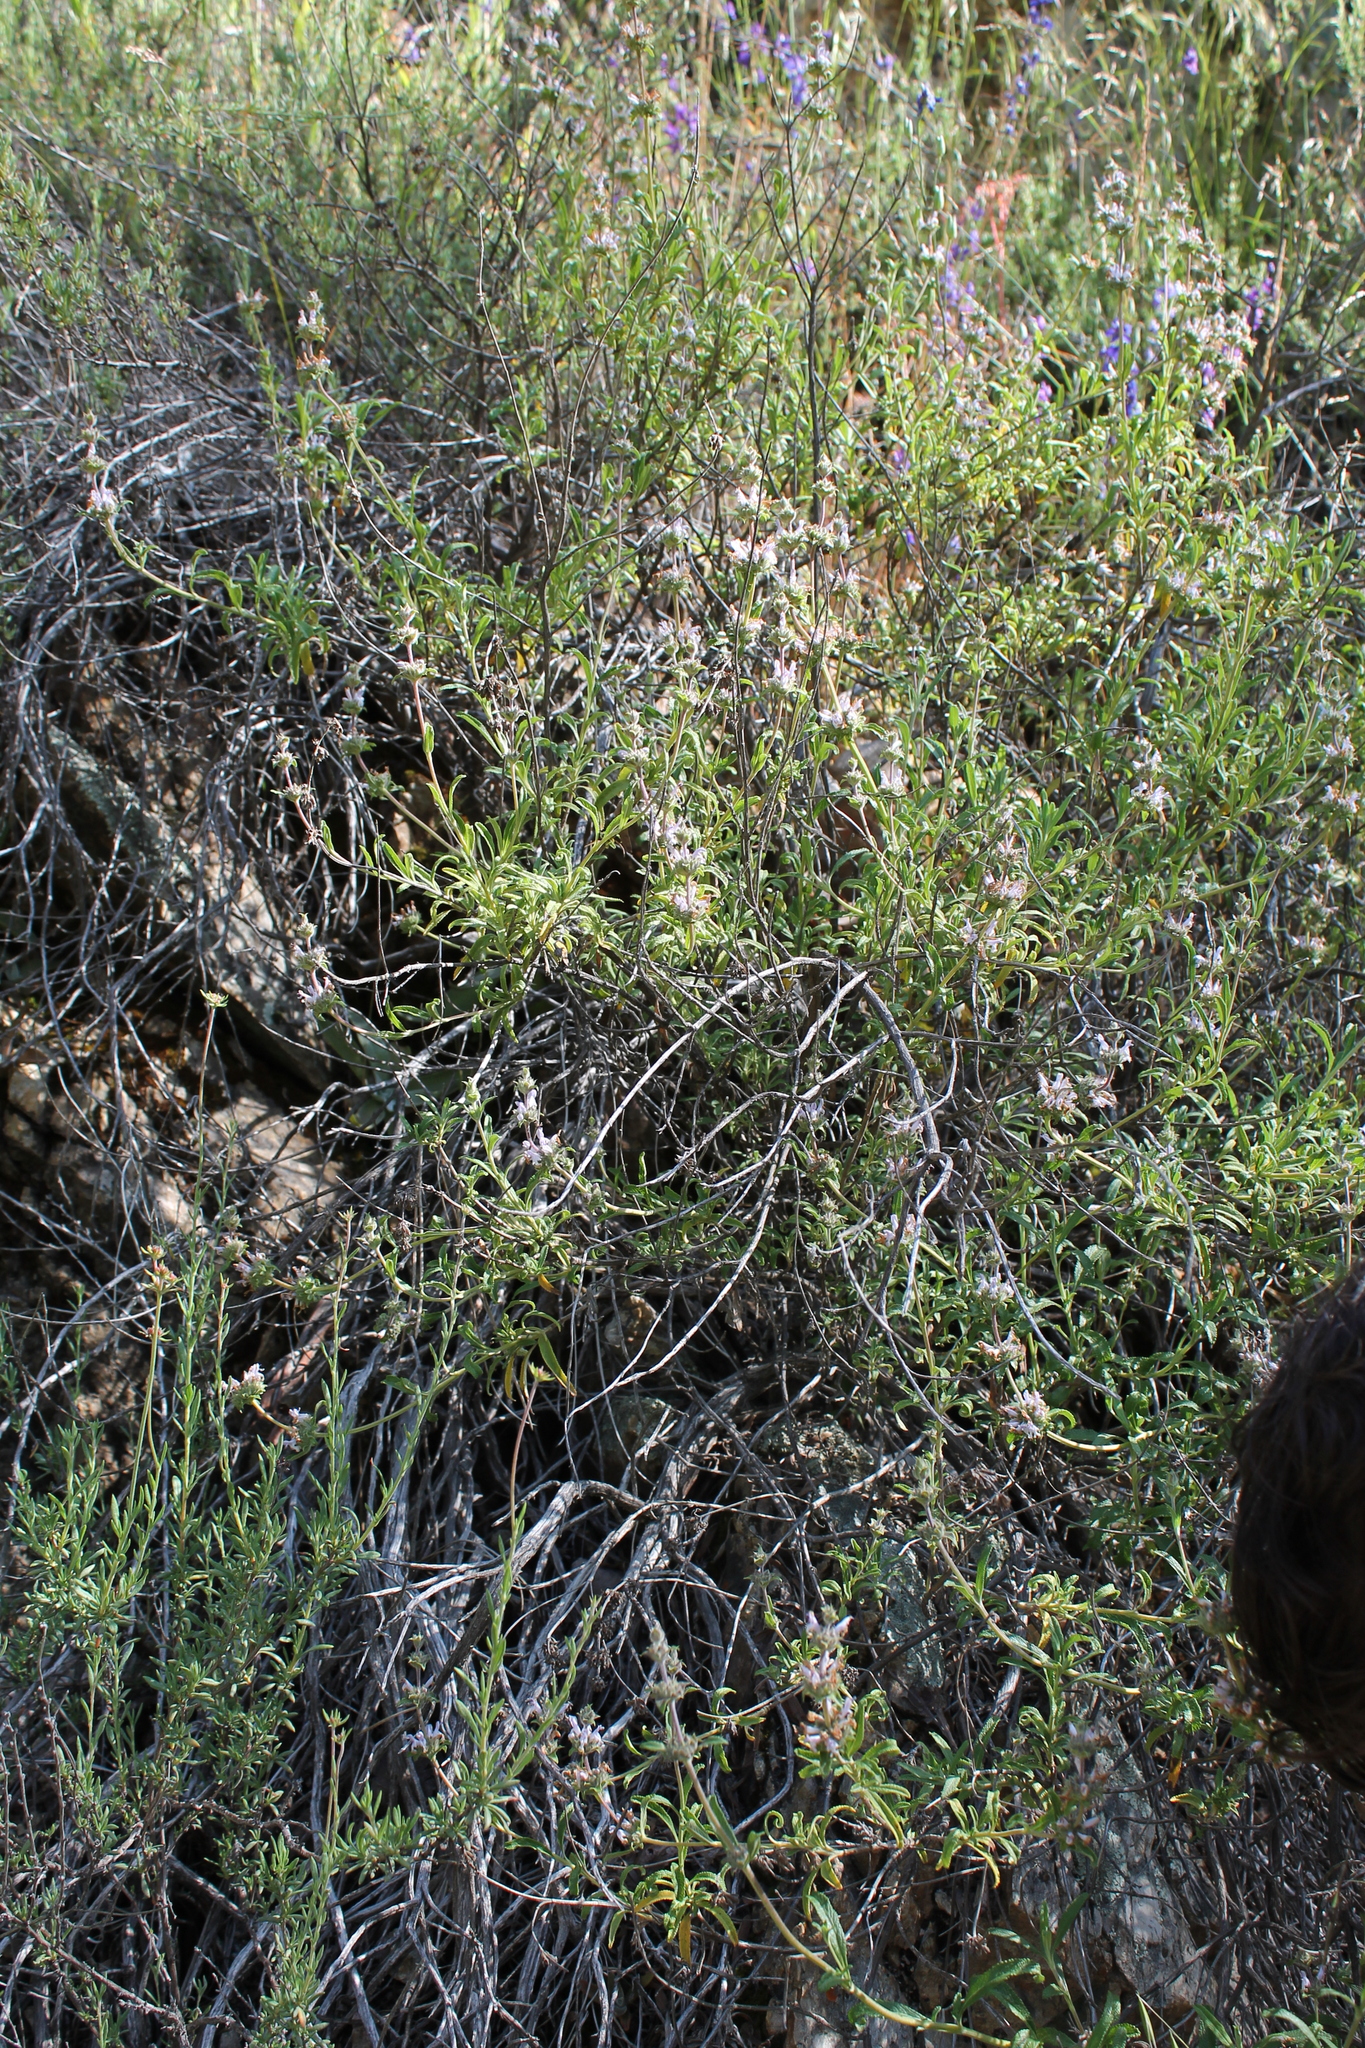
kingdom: Plantae
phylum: Tracheophyta
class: Magnoliopsida
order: Lamiales
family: Lamiaceae
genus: Salvia
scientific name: Salvia mellifera
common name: Black sage
